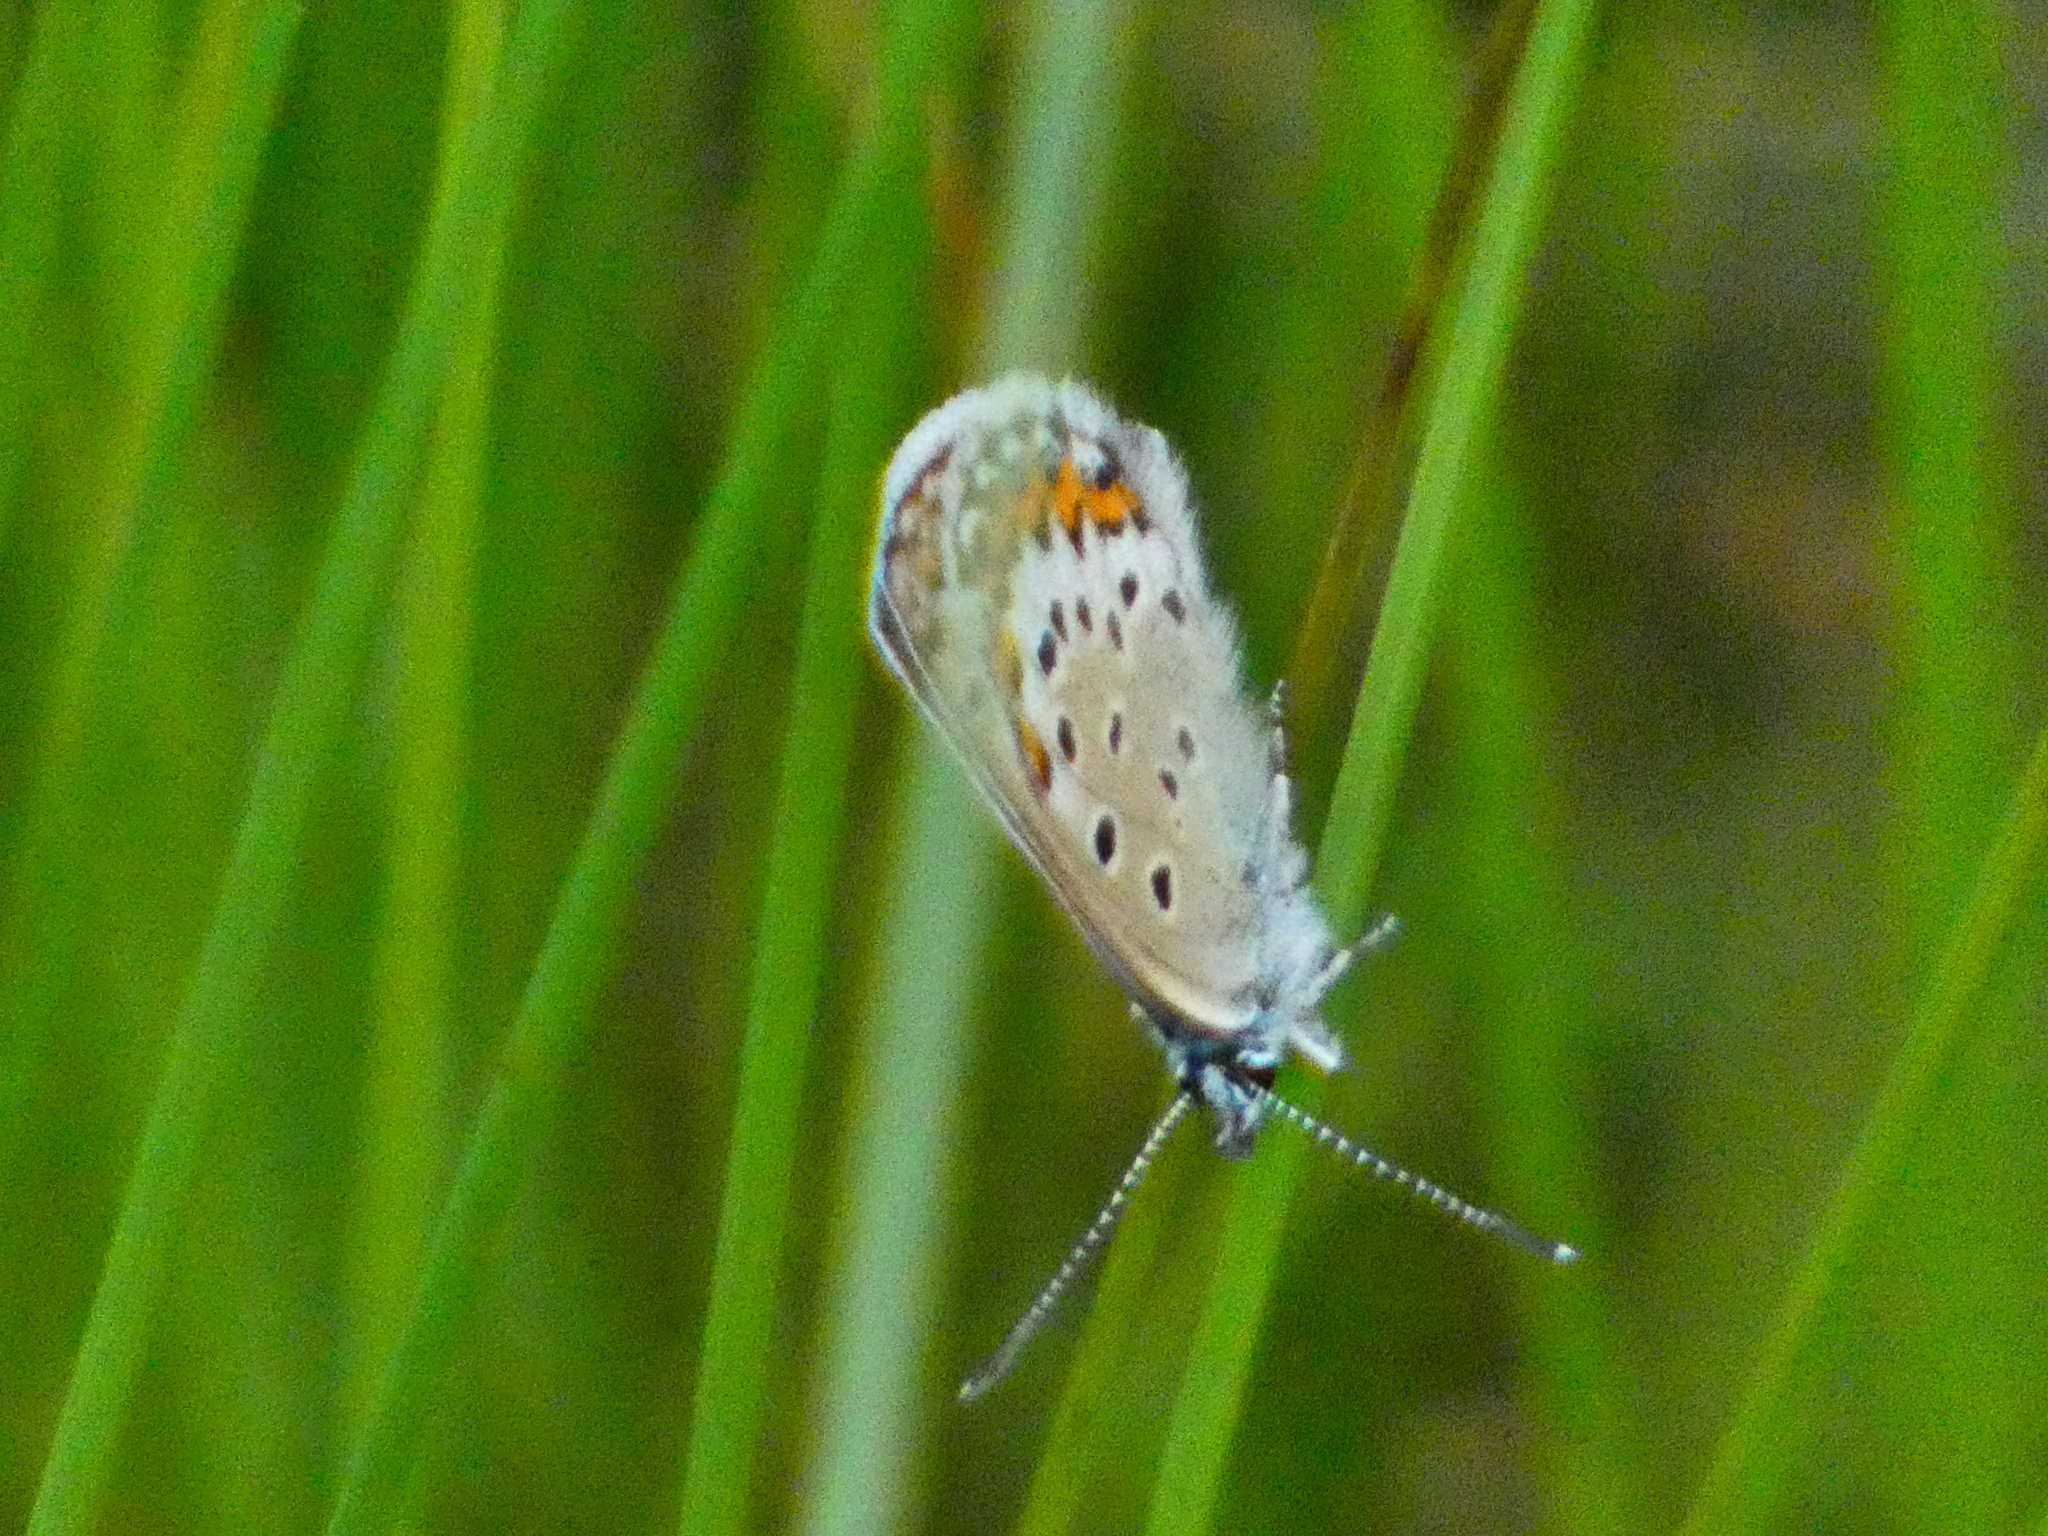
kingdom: Animalia
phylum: Arthropoda
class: Insecta
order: Lepidoptera
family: Lycaenidae
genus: Lycaeides
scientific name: Lycaeides idas
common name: Northern blue
